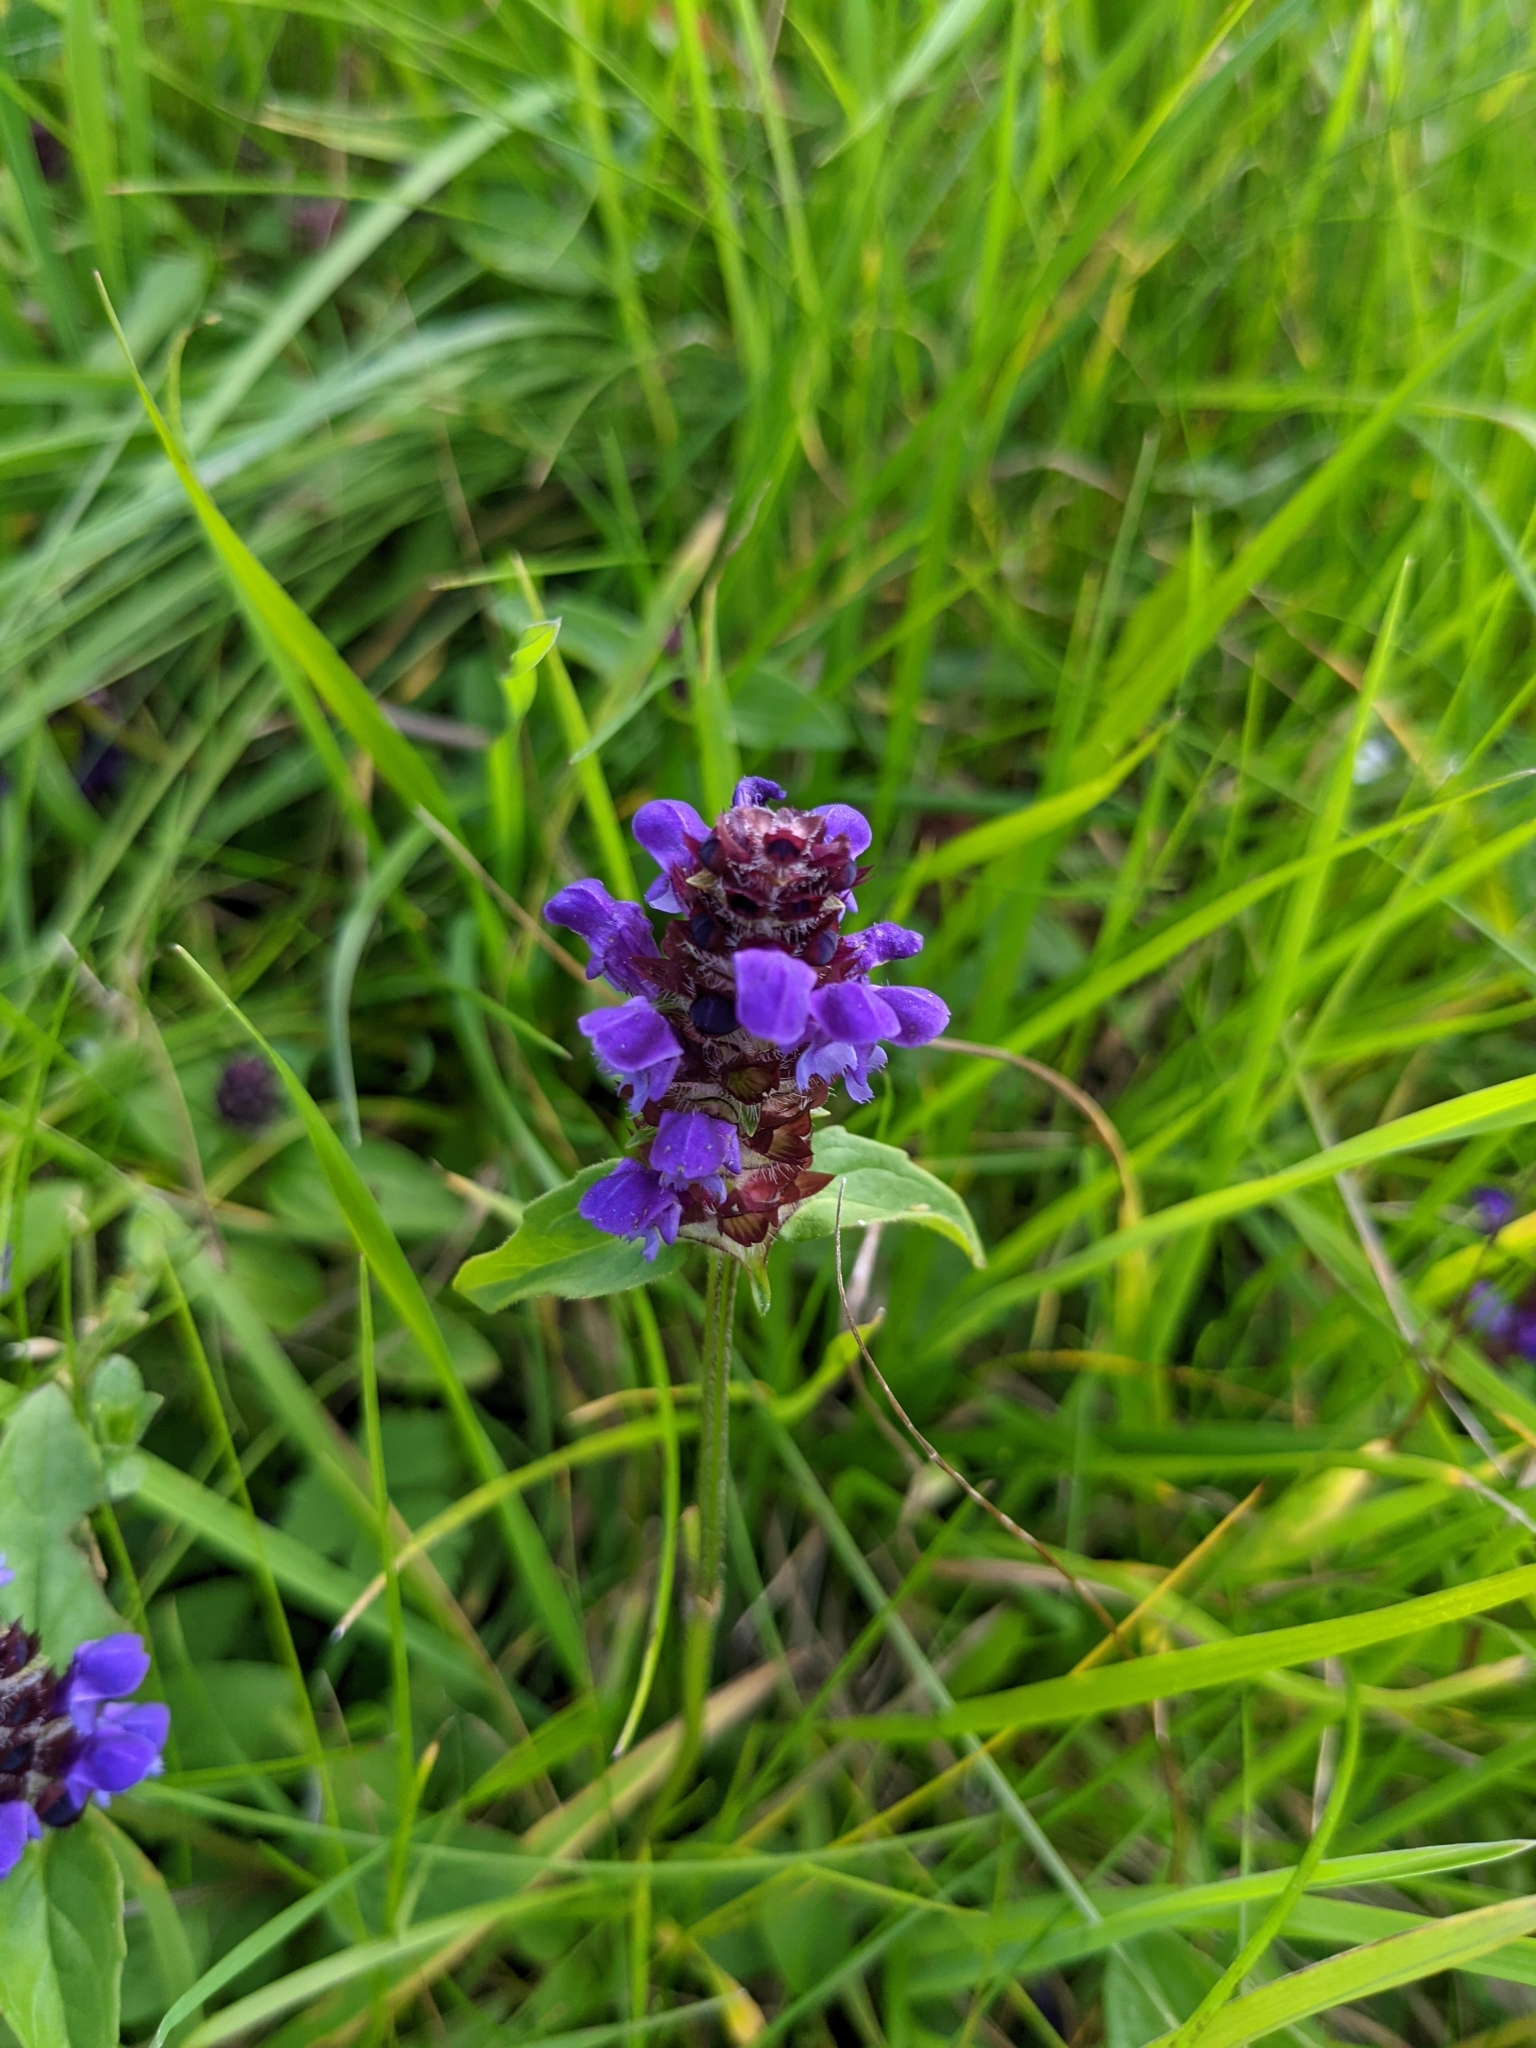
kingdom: Plantae
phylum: Tracheophyta
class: Magnoliopsida
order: Lamiales
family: Lamiaceae
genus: Prunella
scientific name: Prunella vulgaris
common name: Heal-all
